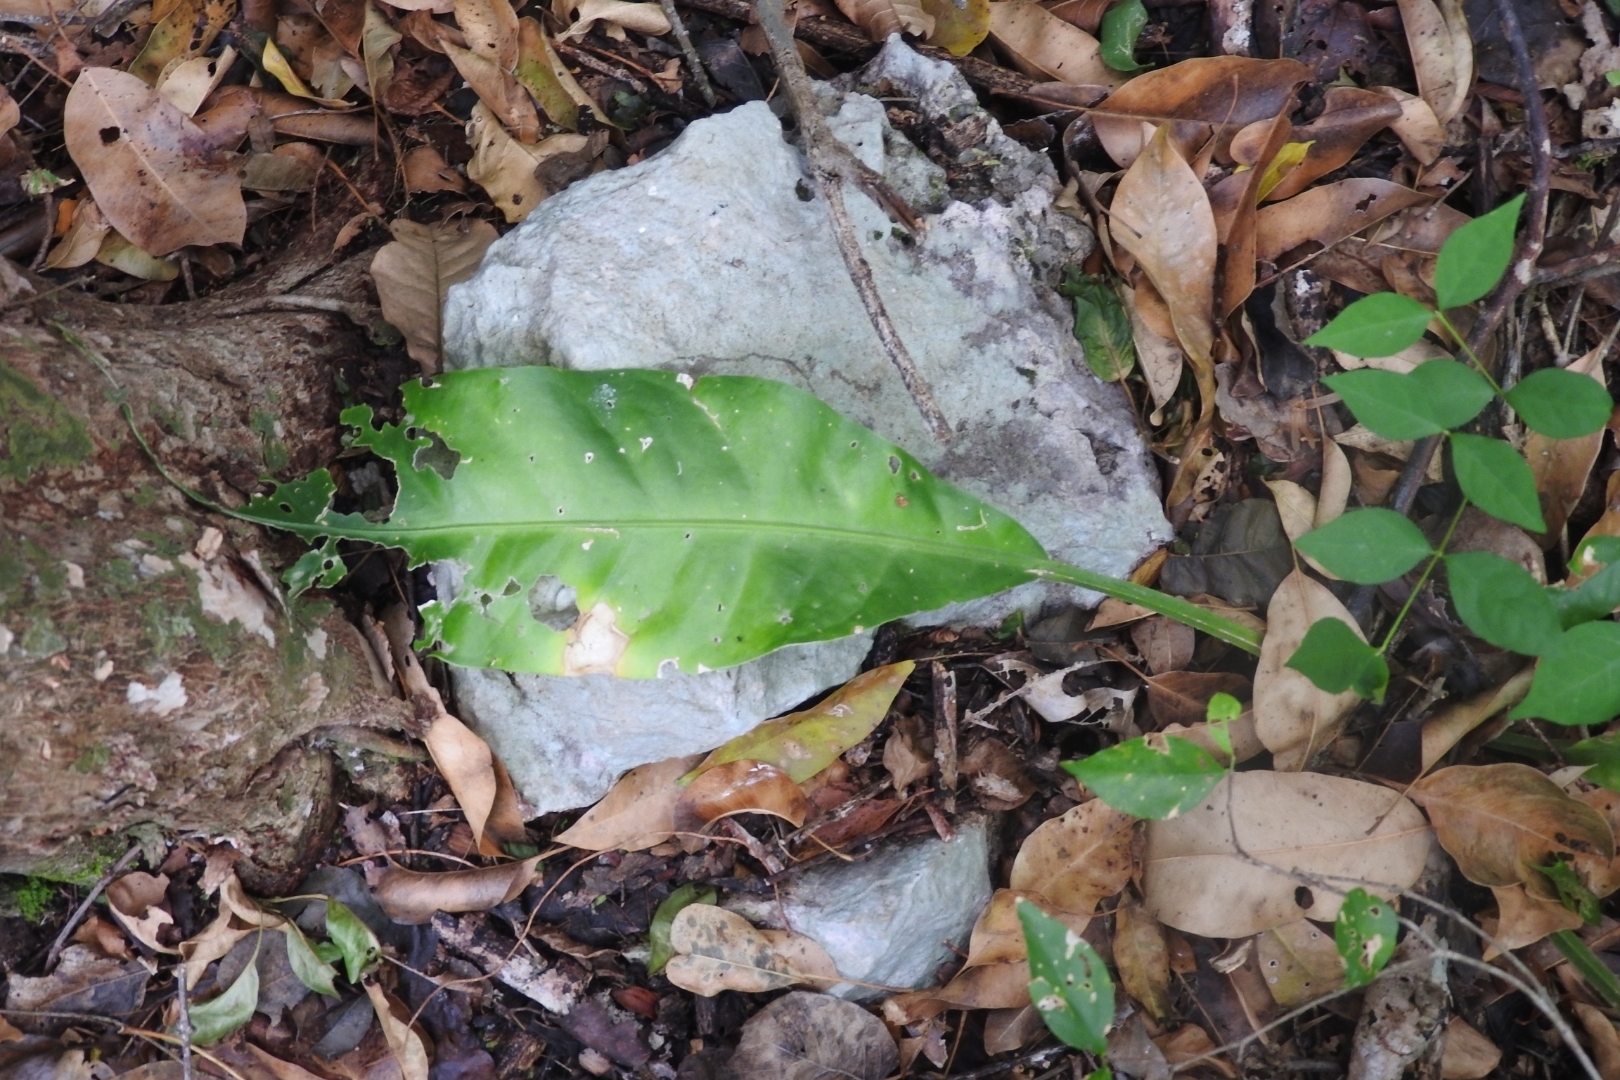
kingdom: Plantae
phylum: Tracheophyta
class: Liliopsida
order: Alismatales
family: Araceae
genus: Anthurium
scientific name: Anthurium schlechtendalii
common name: Laceleaf
